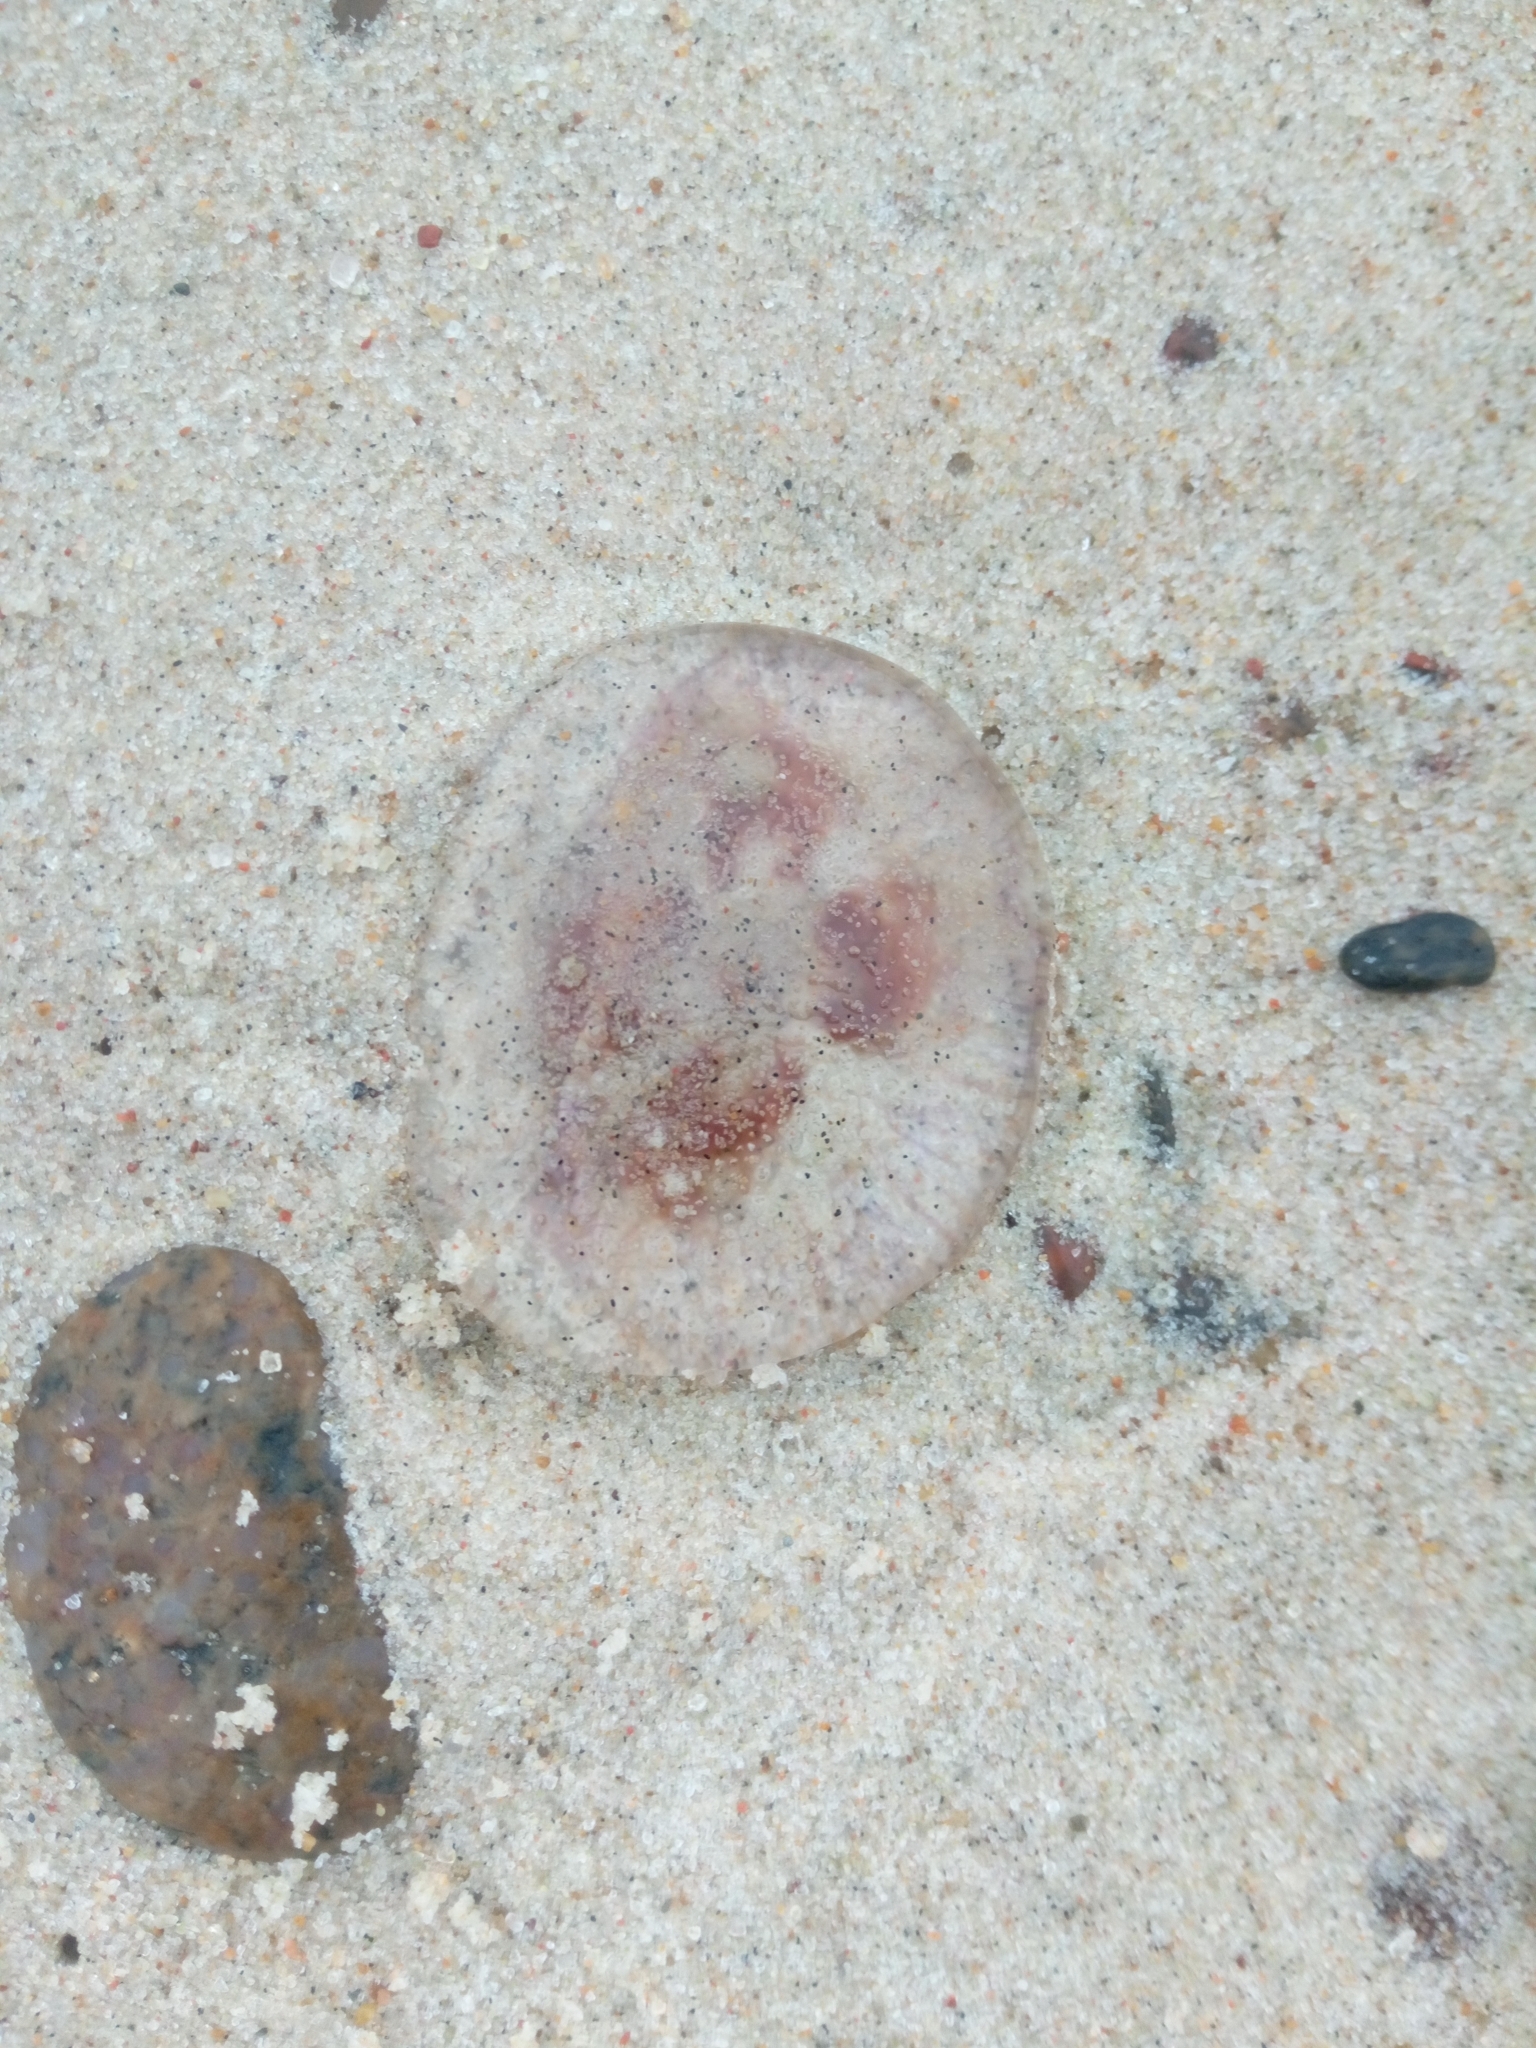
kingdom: Animalia
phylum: Cnidaria
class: Scyphozoa
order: Semaeostomeae
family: Ulmaridae
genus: Aurelia
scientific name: Aurelia aurita
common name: Moon jellyfish
